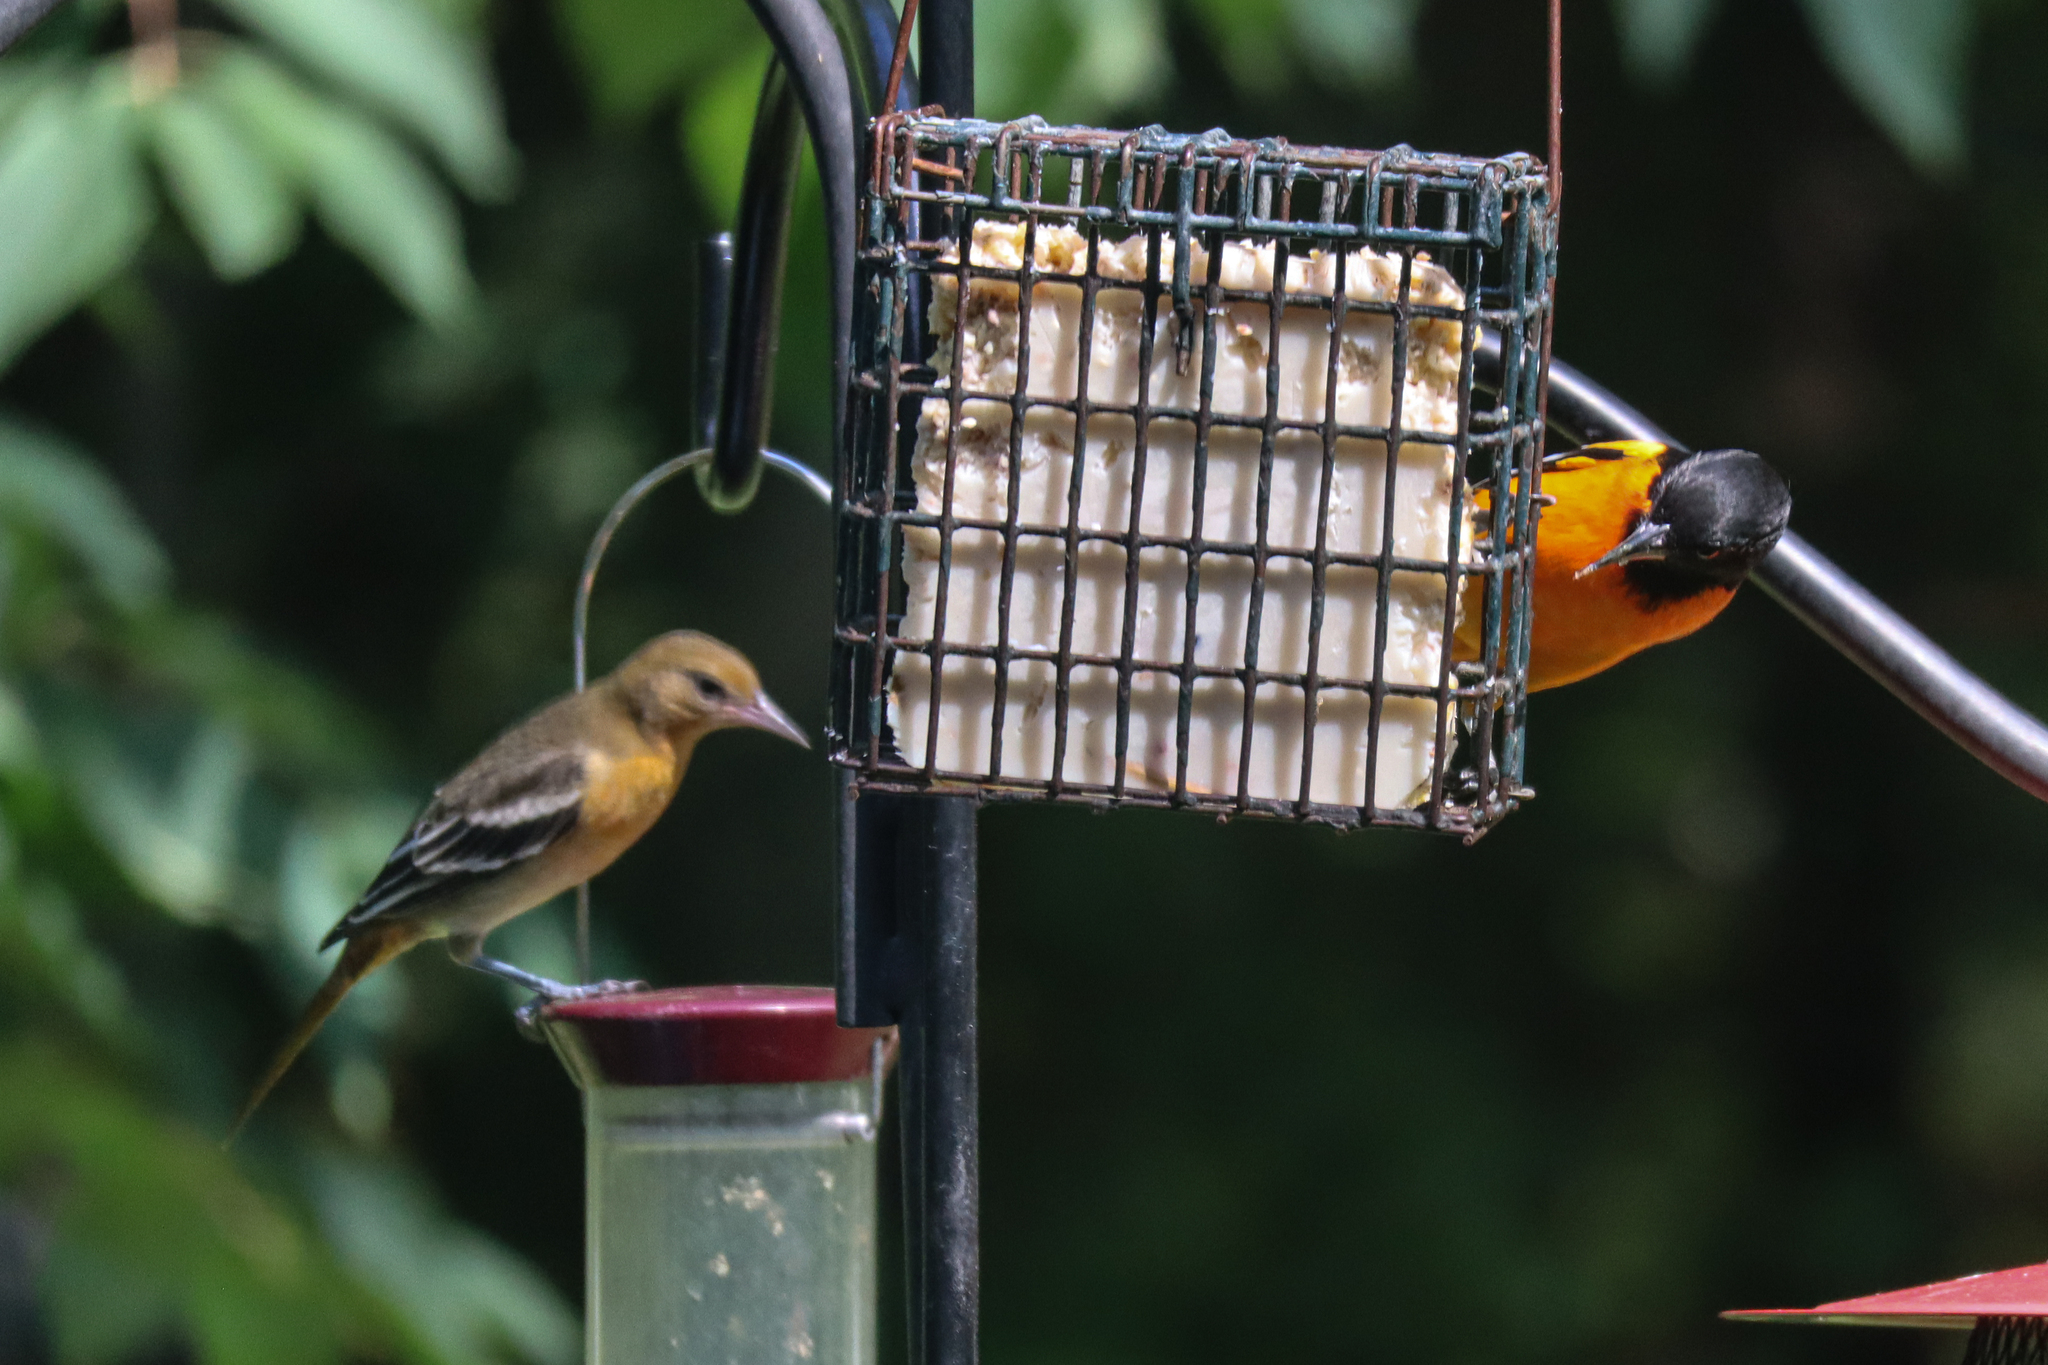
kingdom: Animalia
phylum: Chordata
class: Aves
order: Passeriformes
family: Icteridae
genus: Icterus
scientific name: Icterus galbula
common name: Baltimore oriole
